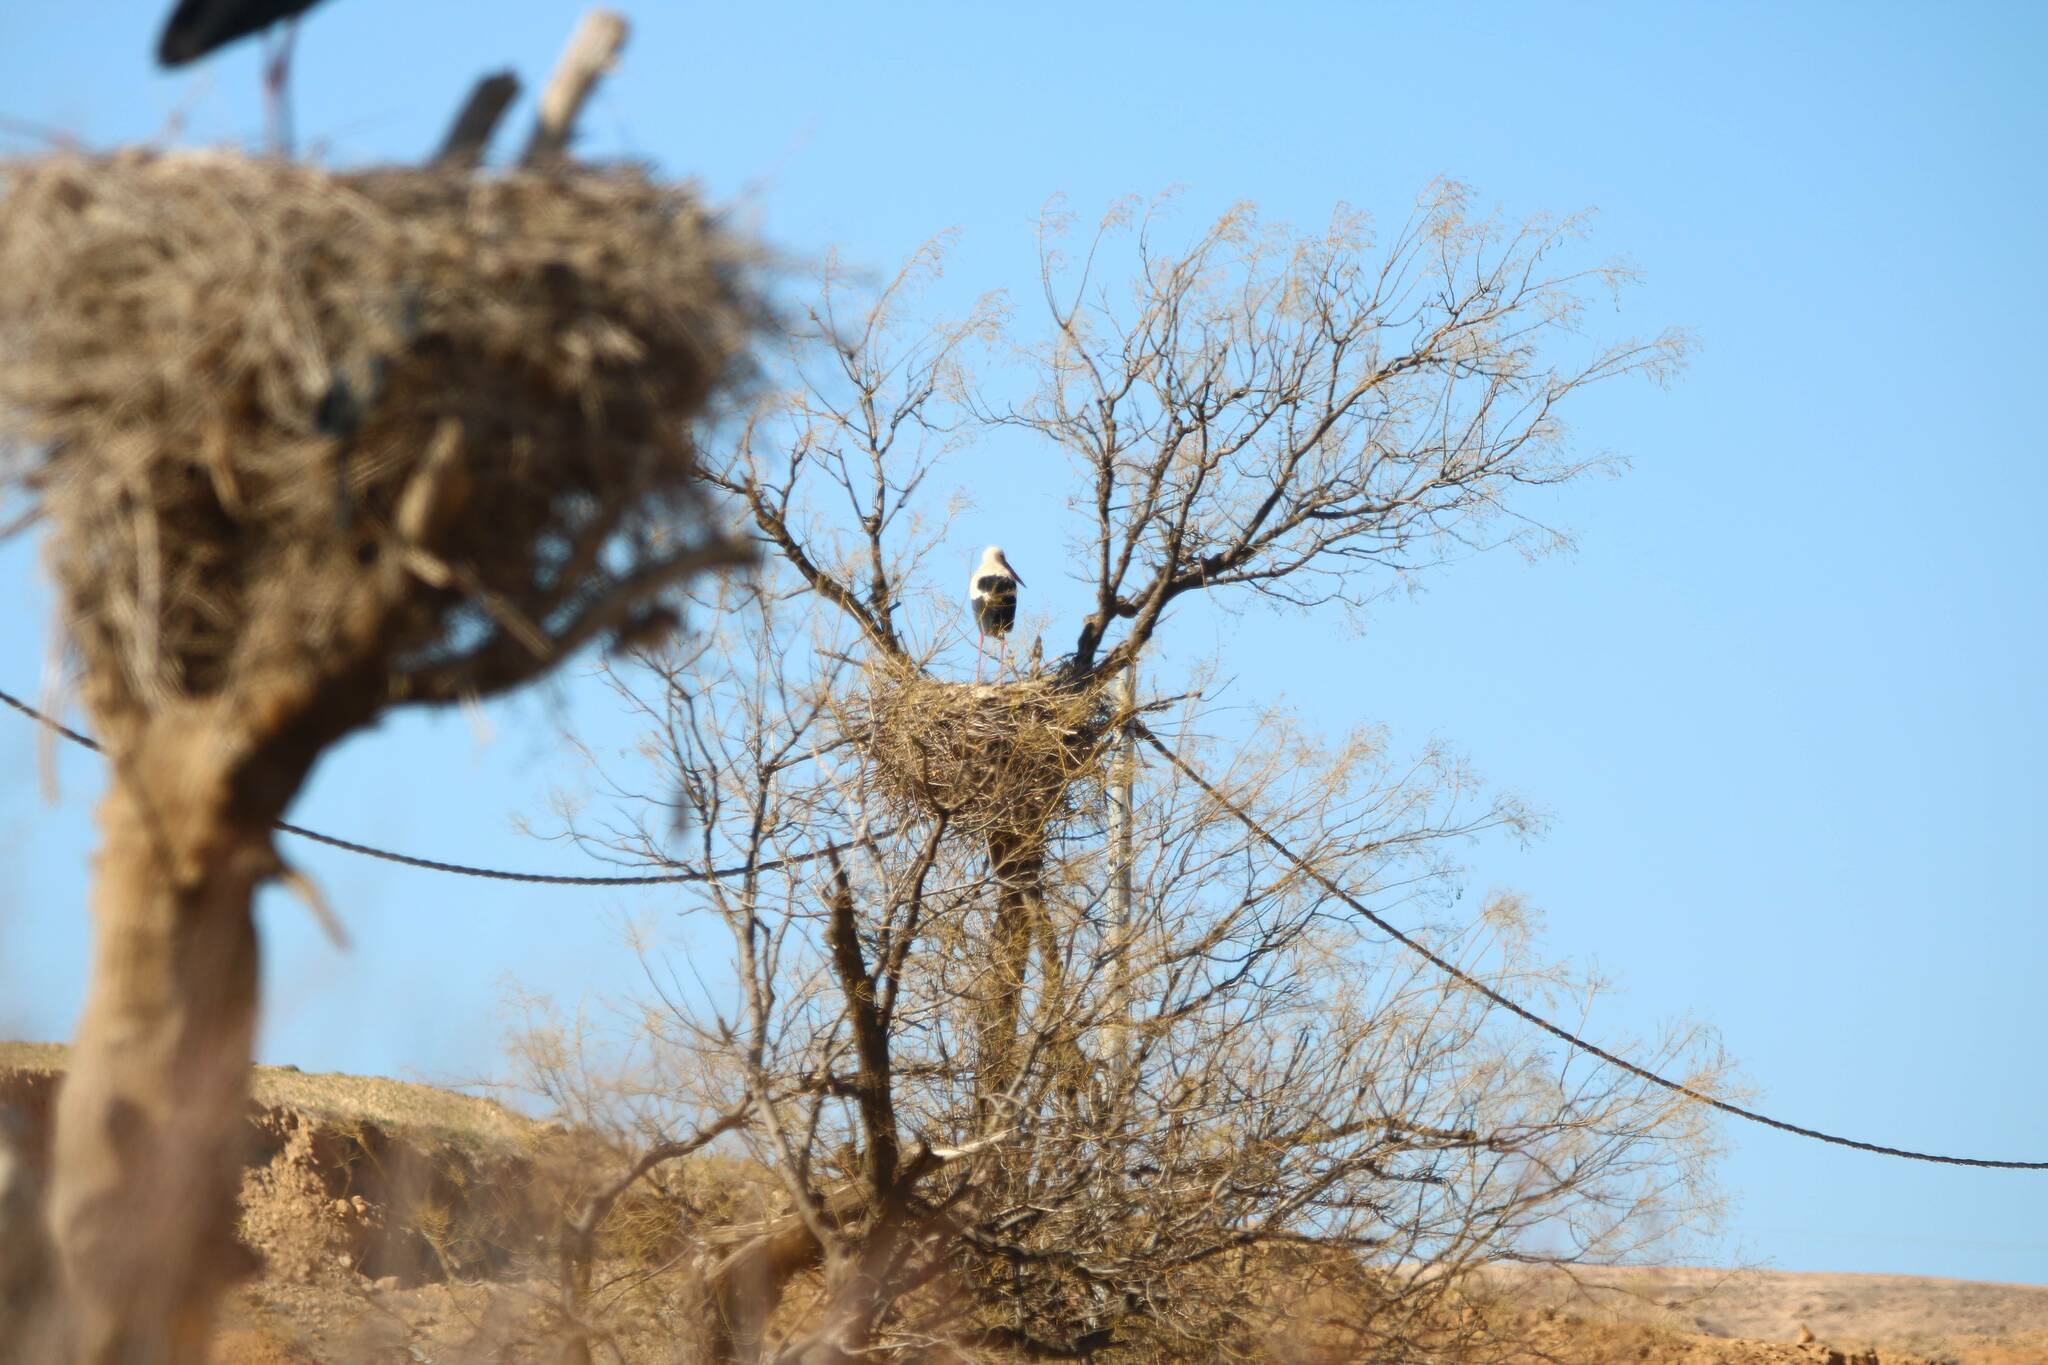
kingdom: Animalia
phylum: Chordata
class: Aves
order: Ciconiiformes
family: Ciconiidae
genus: Ciconia
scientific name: Ciconia ciconia
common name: White stork
